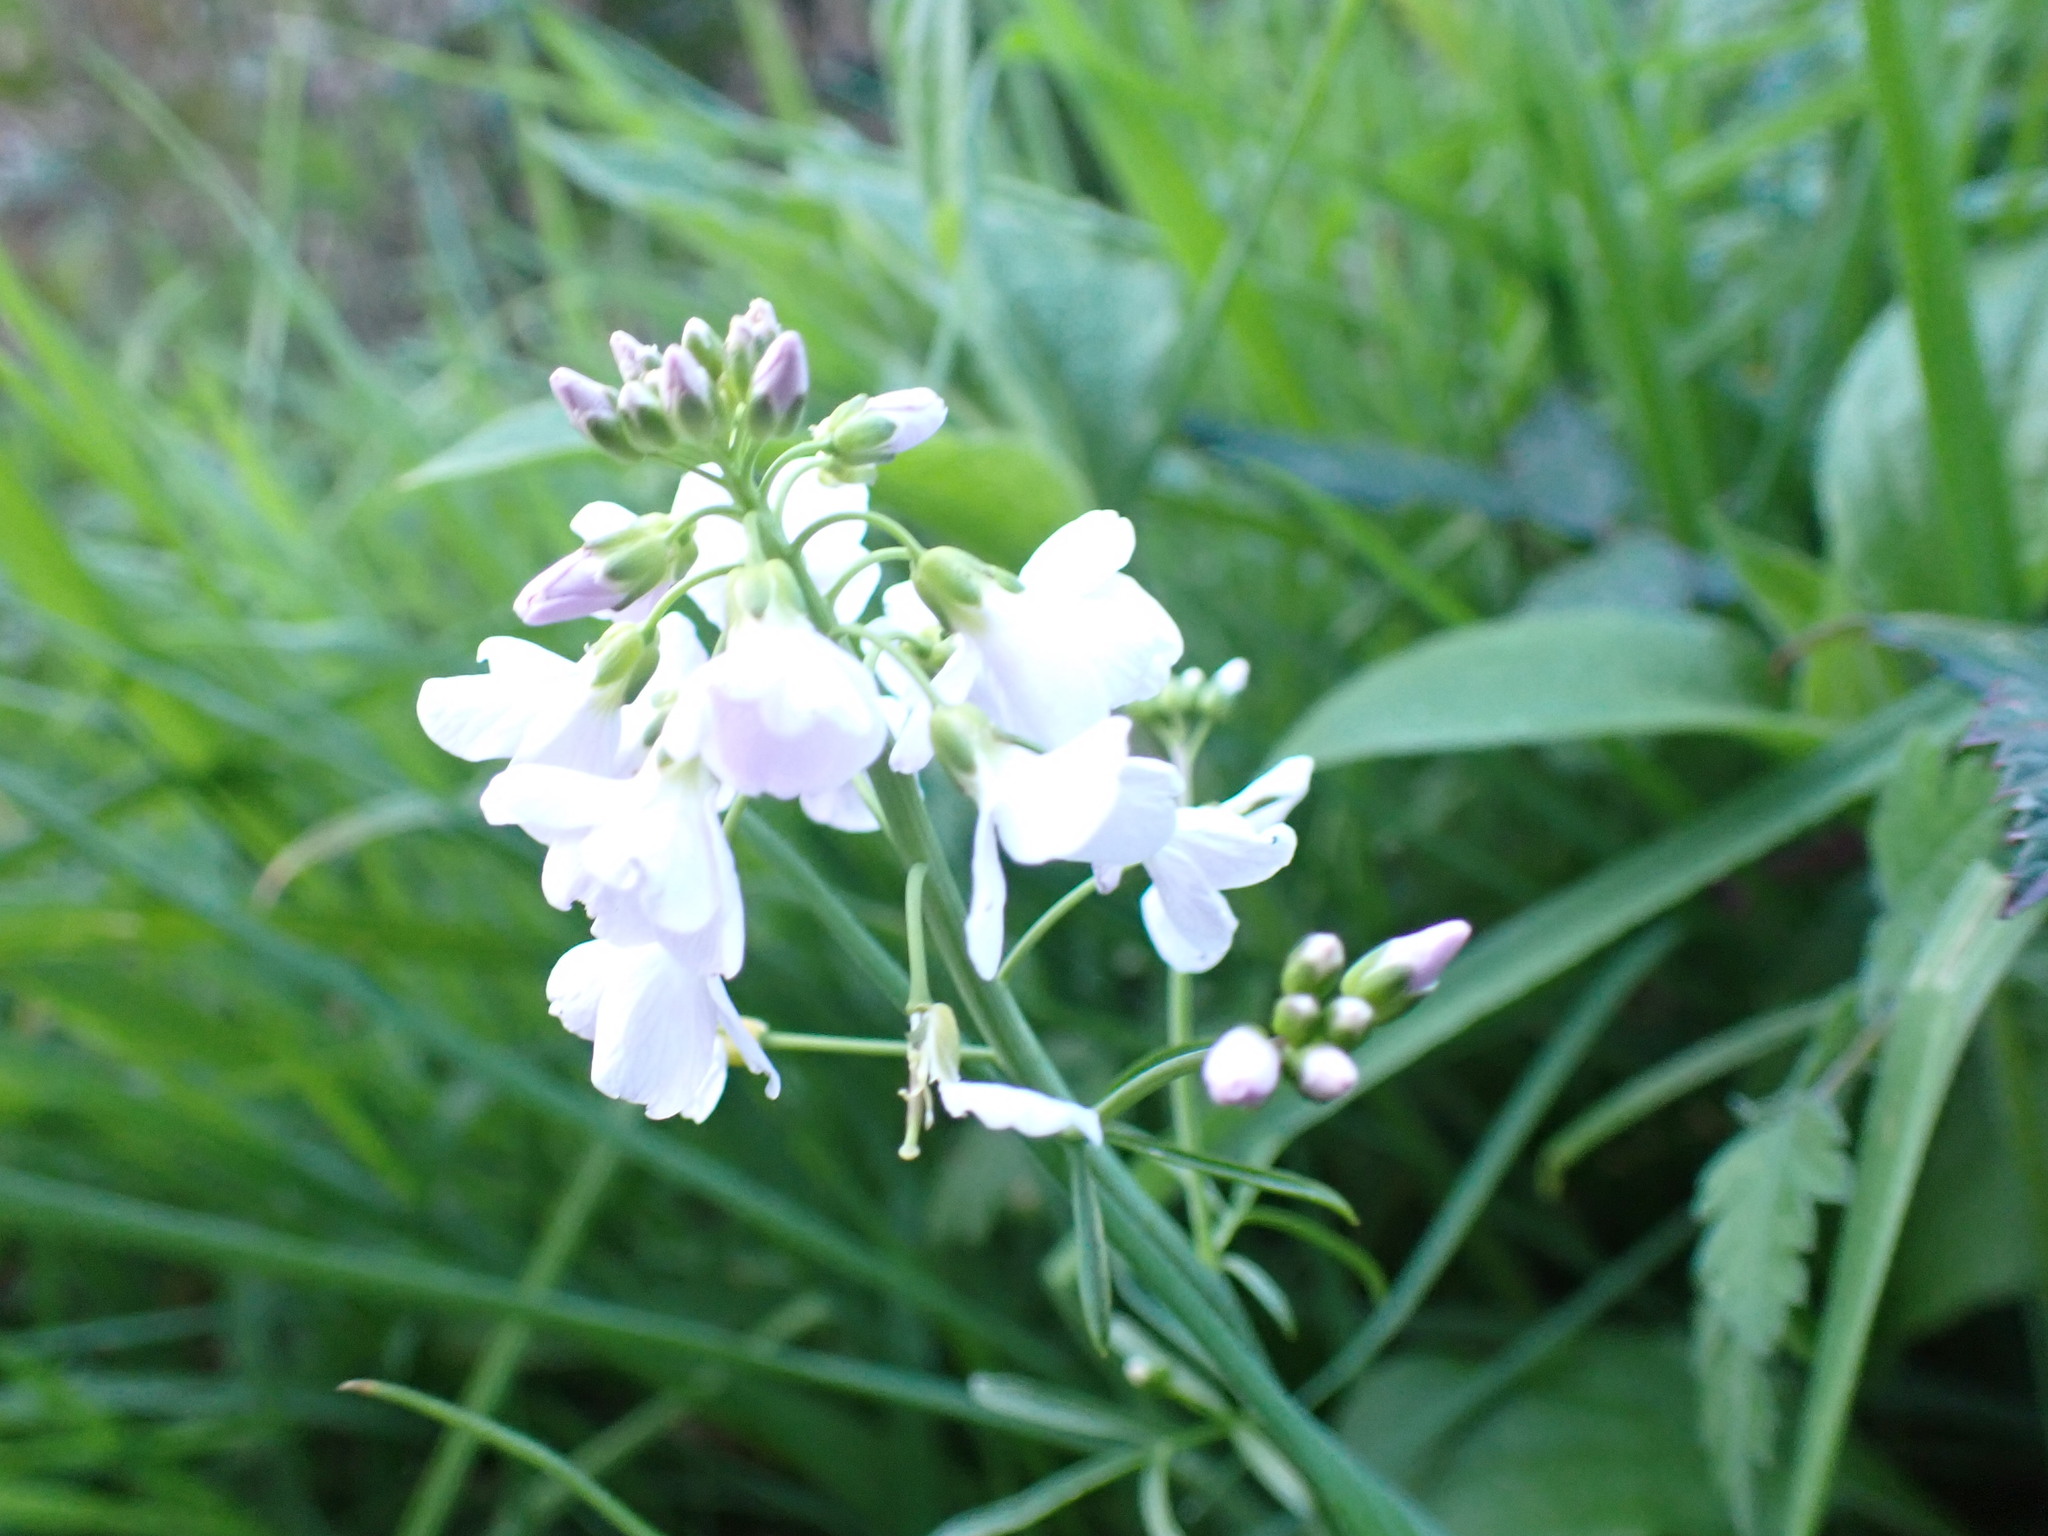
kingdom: Plantae
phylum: Tracheophyta
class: Magnoliopsida
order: Brassicales
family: Brassicaceae
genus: Cardamine
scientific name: Cardamine pratensis
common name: Cuckoo flower
